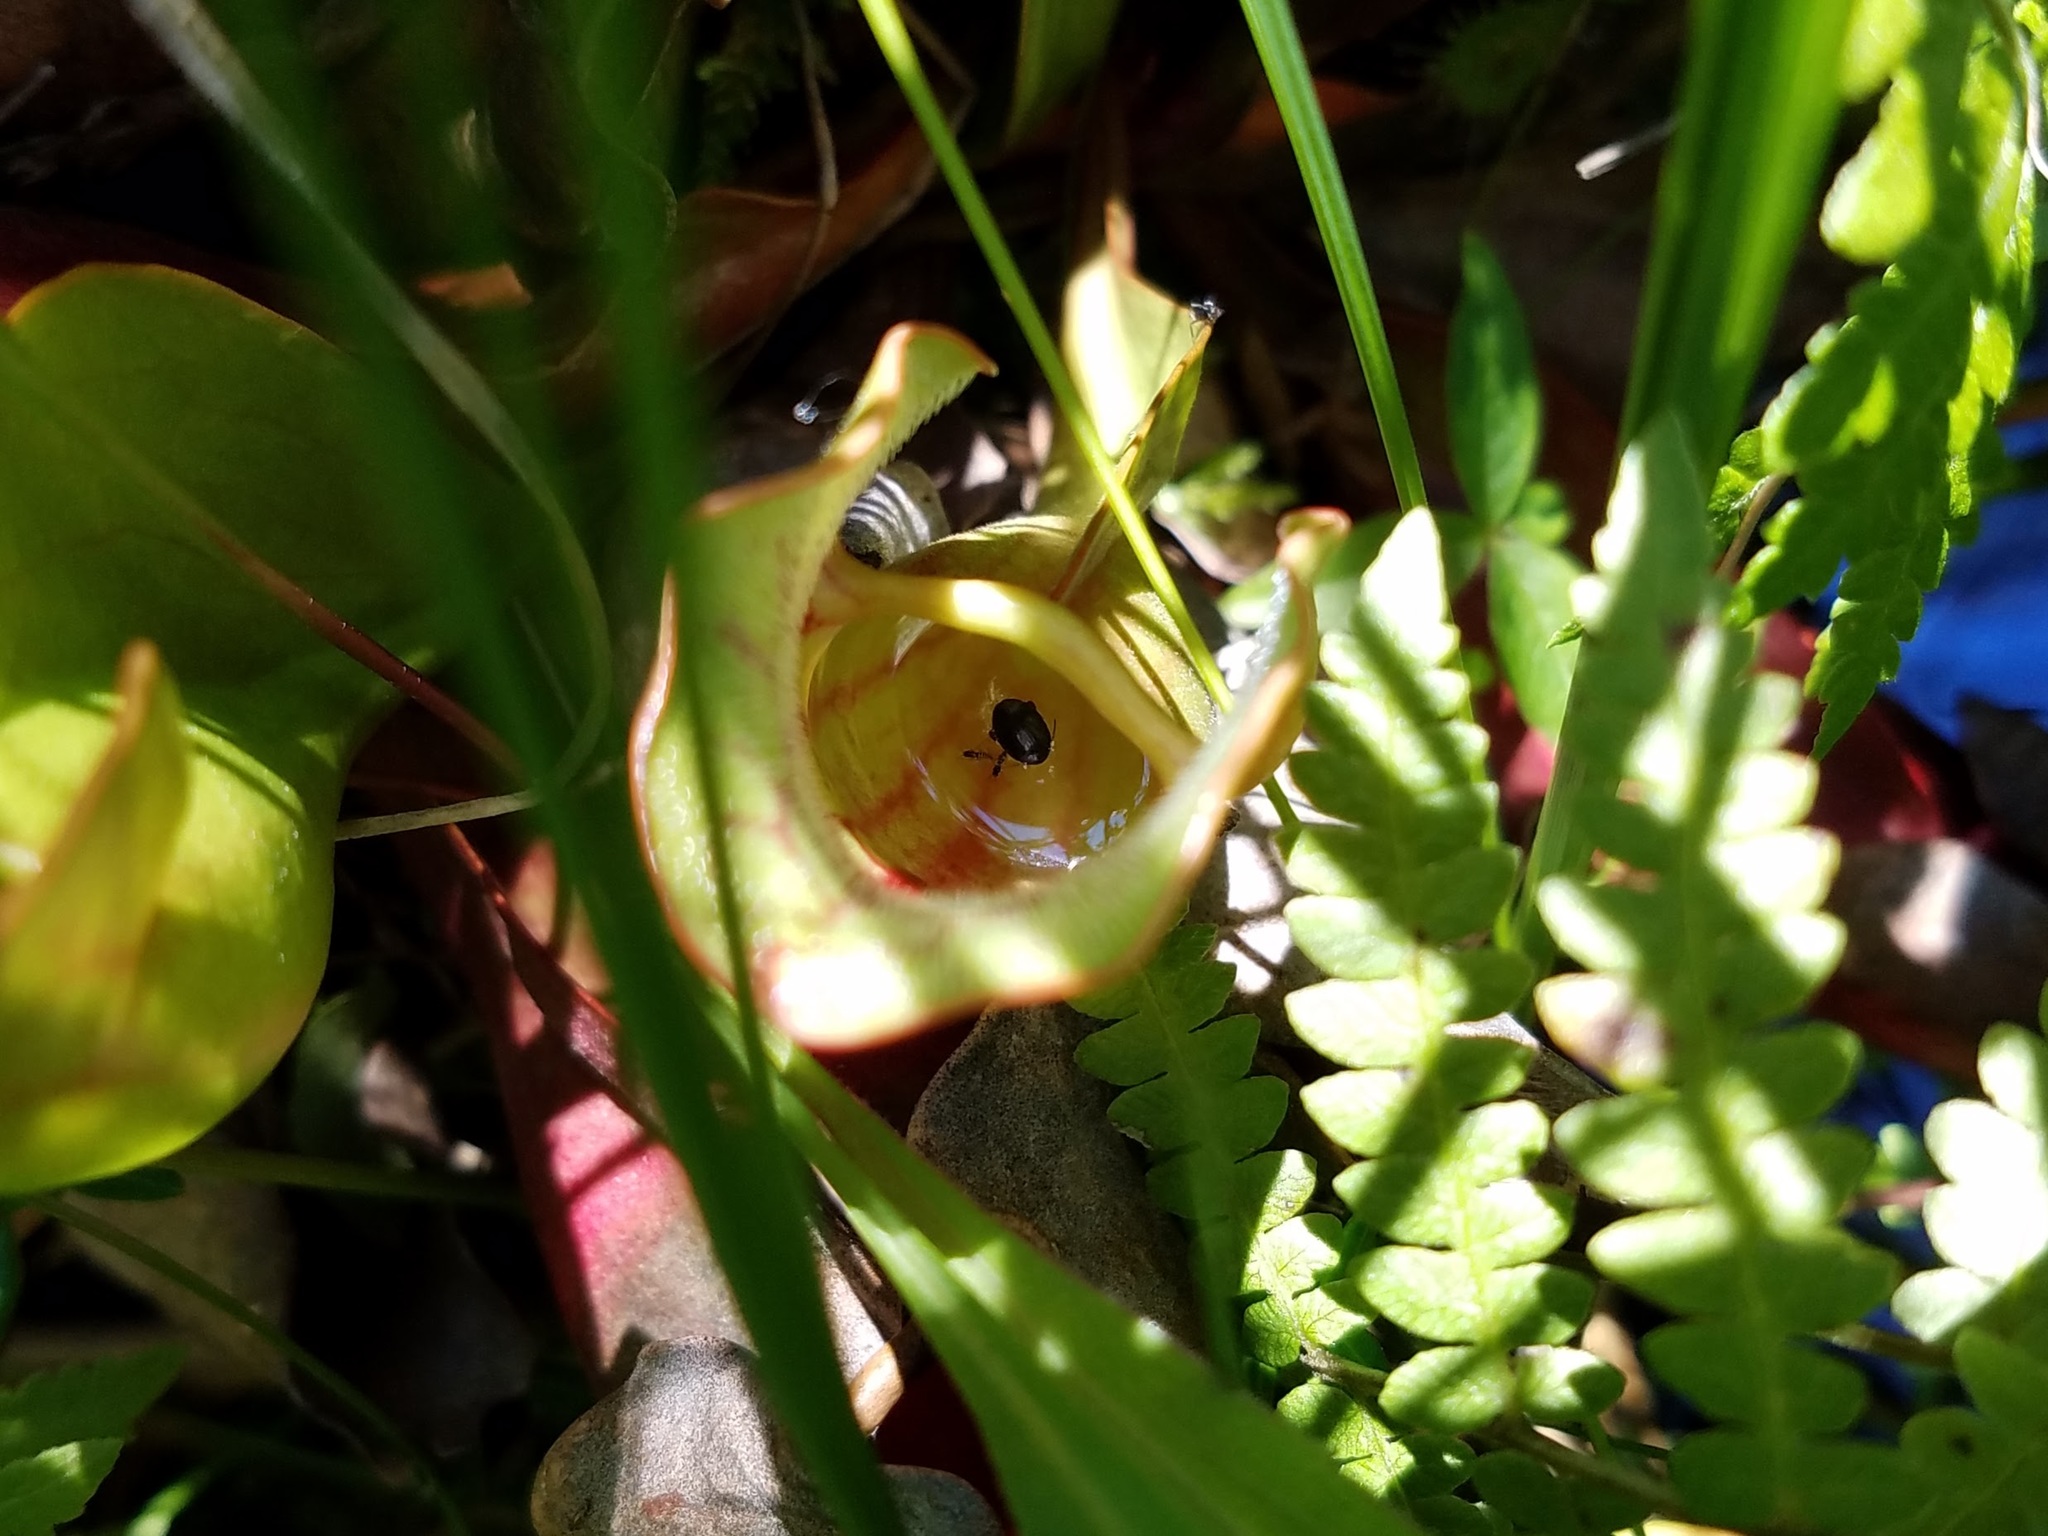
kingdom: Plantae
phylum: Tracheophyta
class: Magnoliopsida
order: Ericales
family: Sarraceniaceae
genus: Sarracenia
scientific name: Sarracenia purpurea
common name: Pitcherplant
